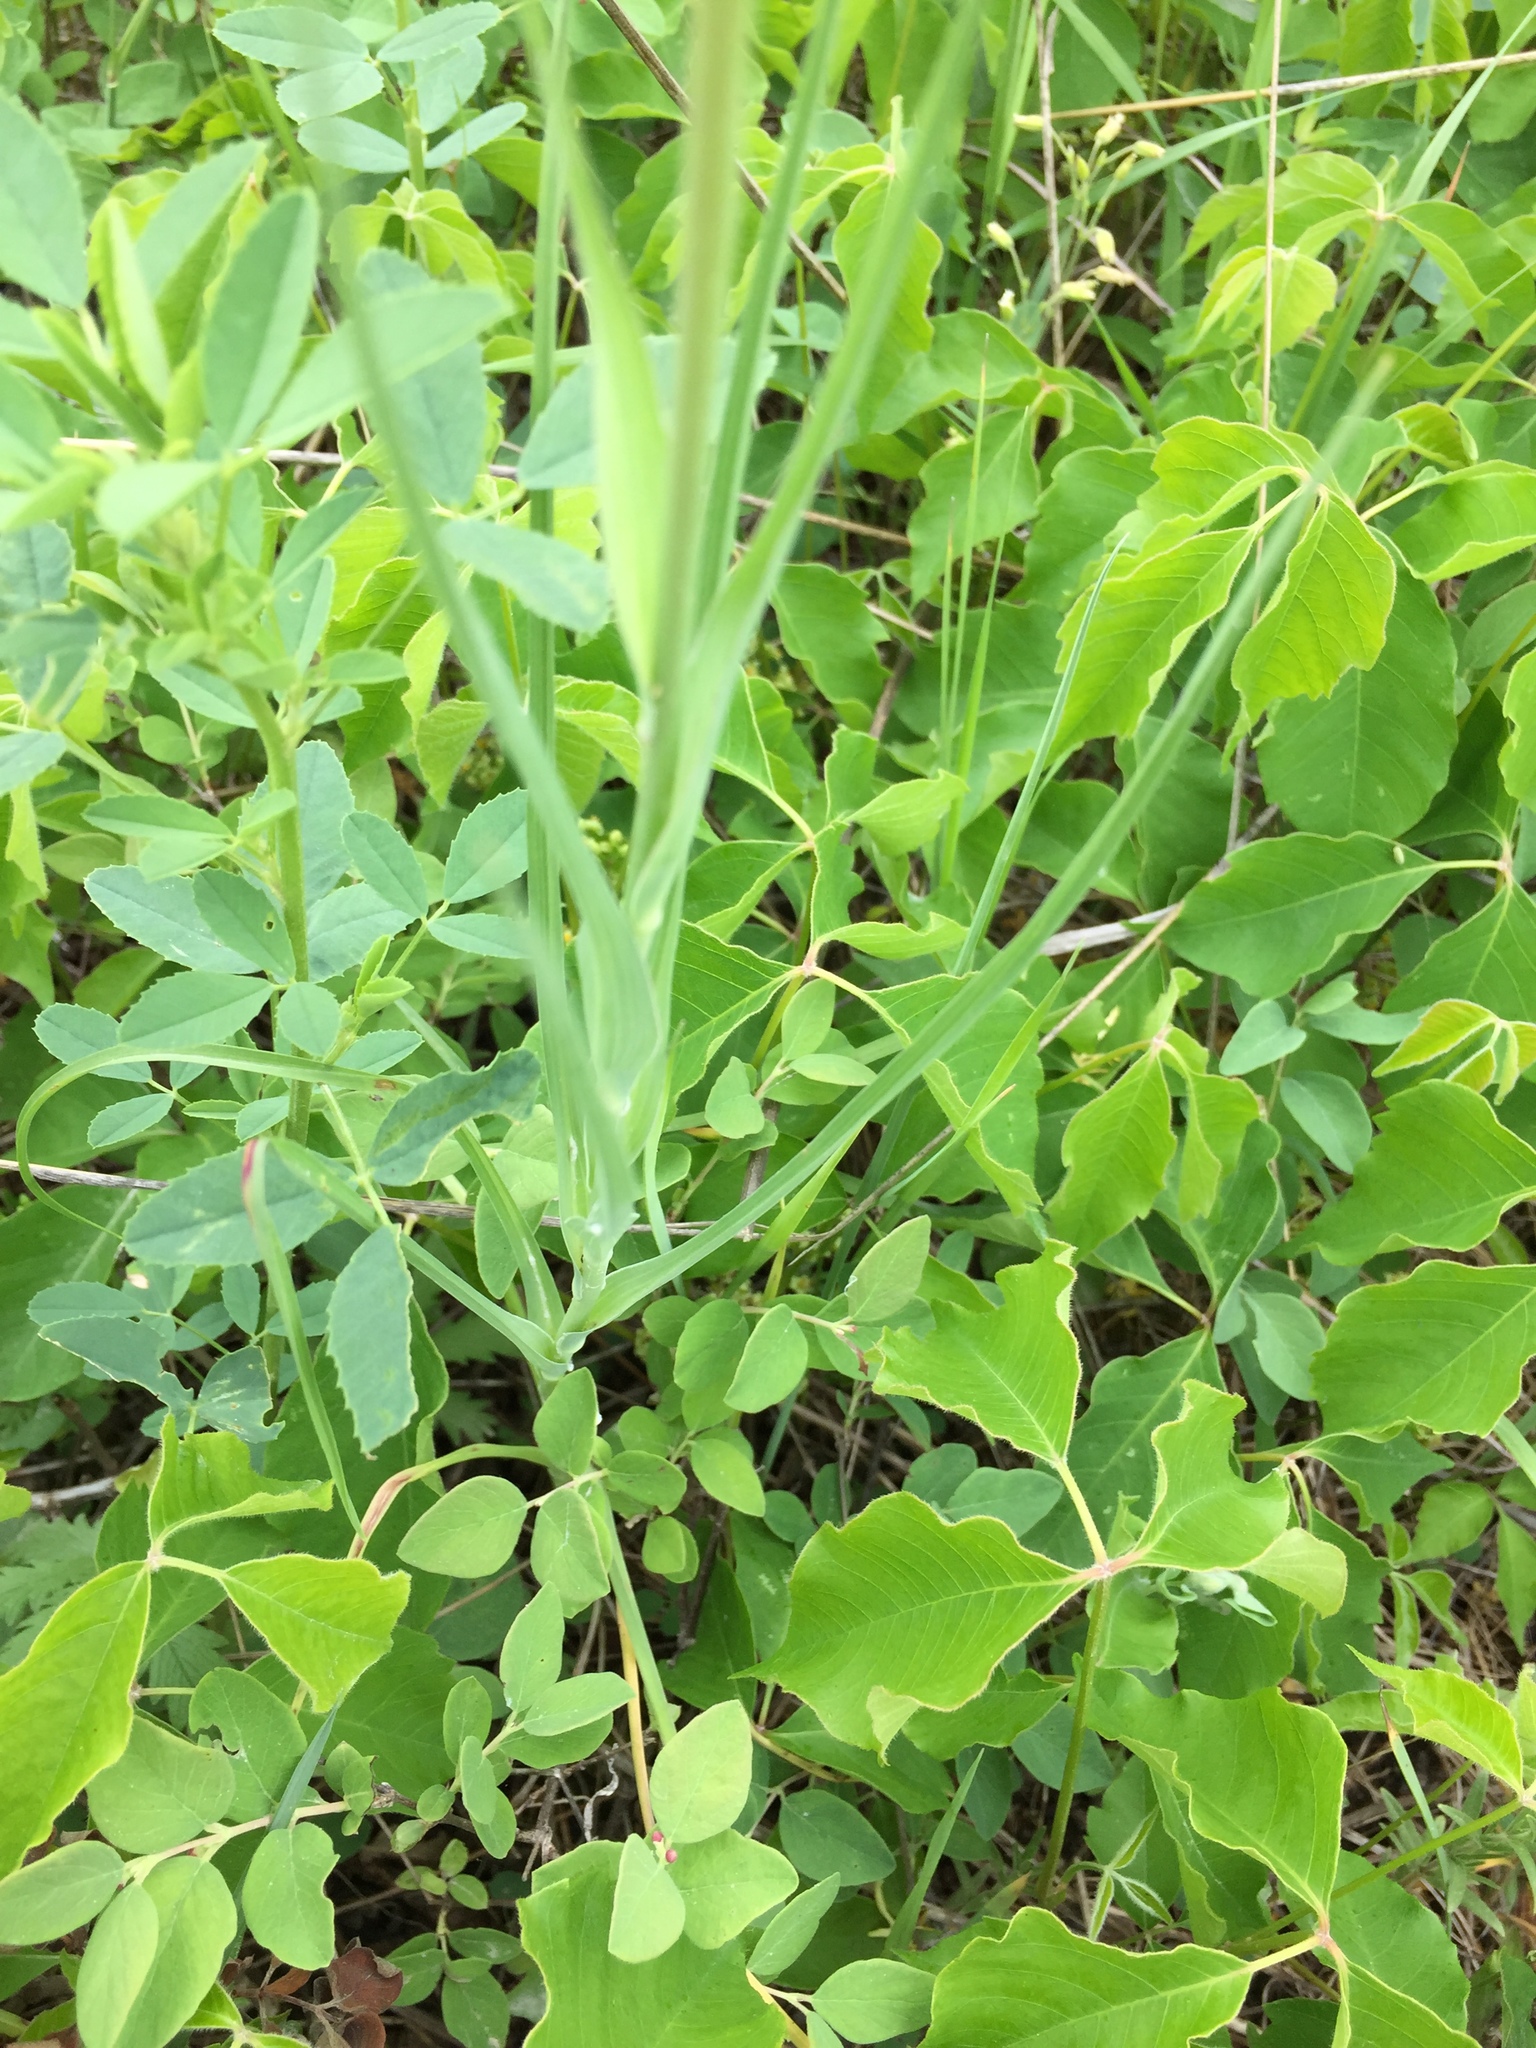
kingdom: Plantae
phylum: Tracheophyta
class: Magnoliopsida
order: Asterales
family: Asteraceae
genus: Tragopogon
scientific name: Tragopogon dubius
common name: Yellow salsify
